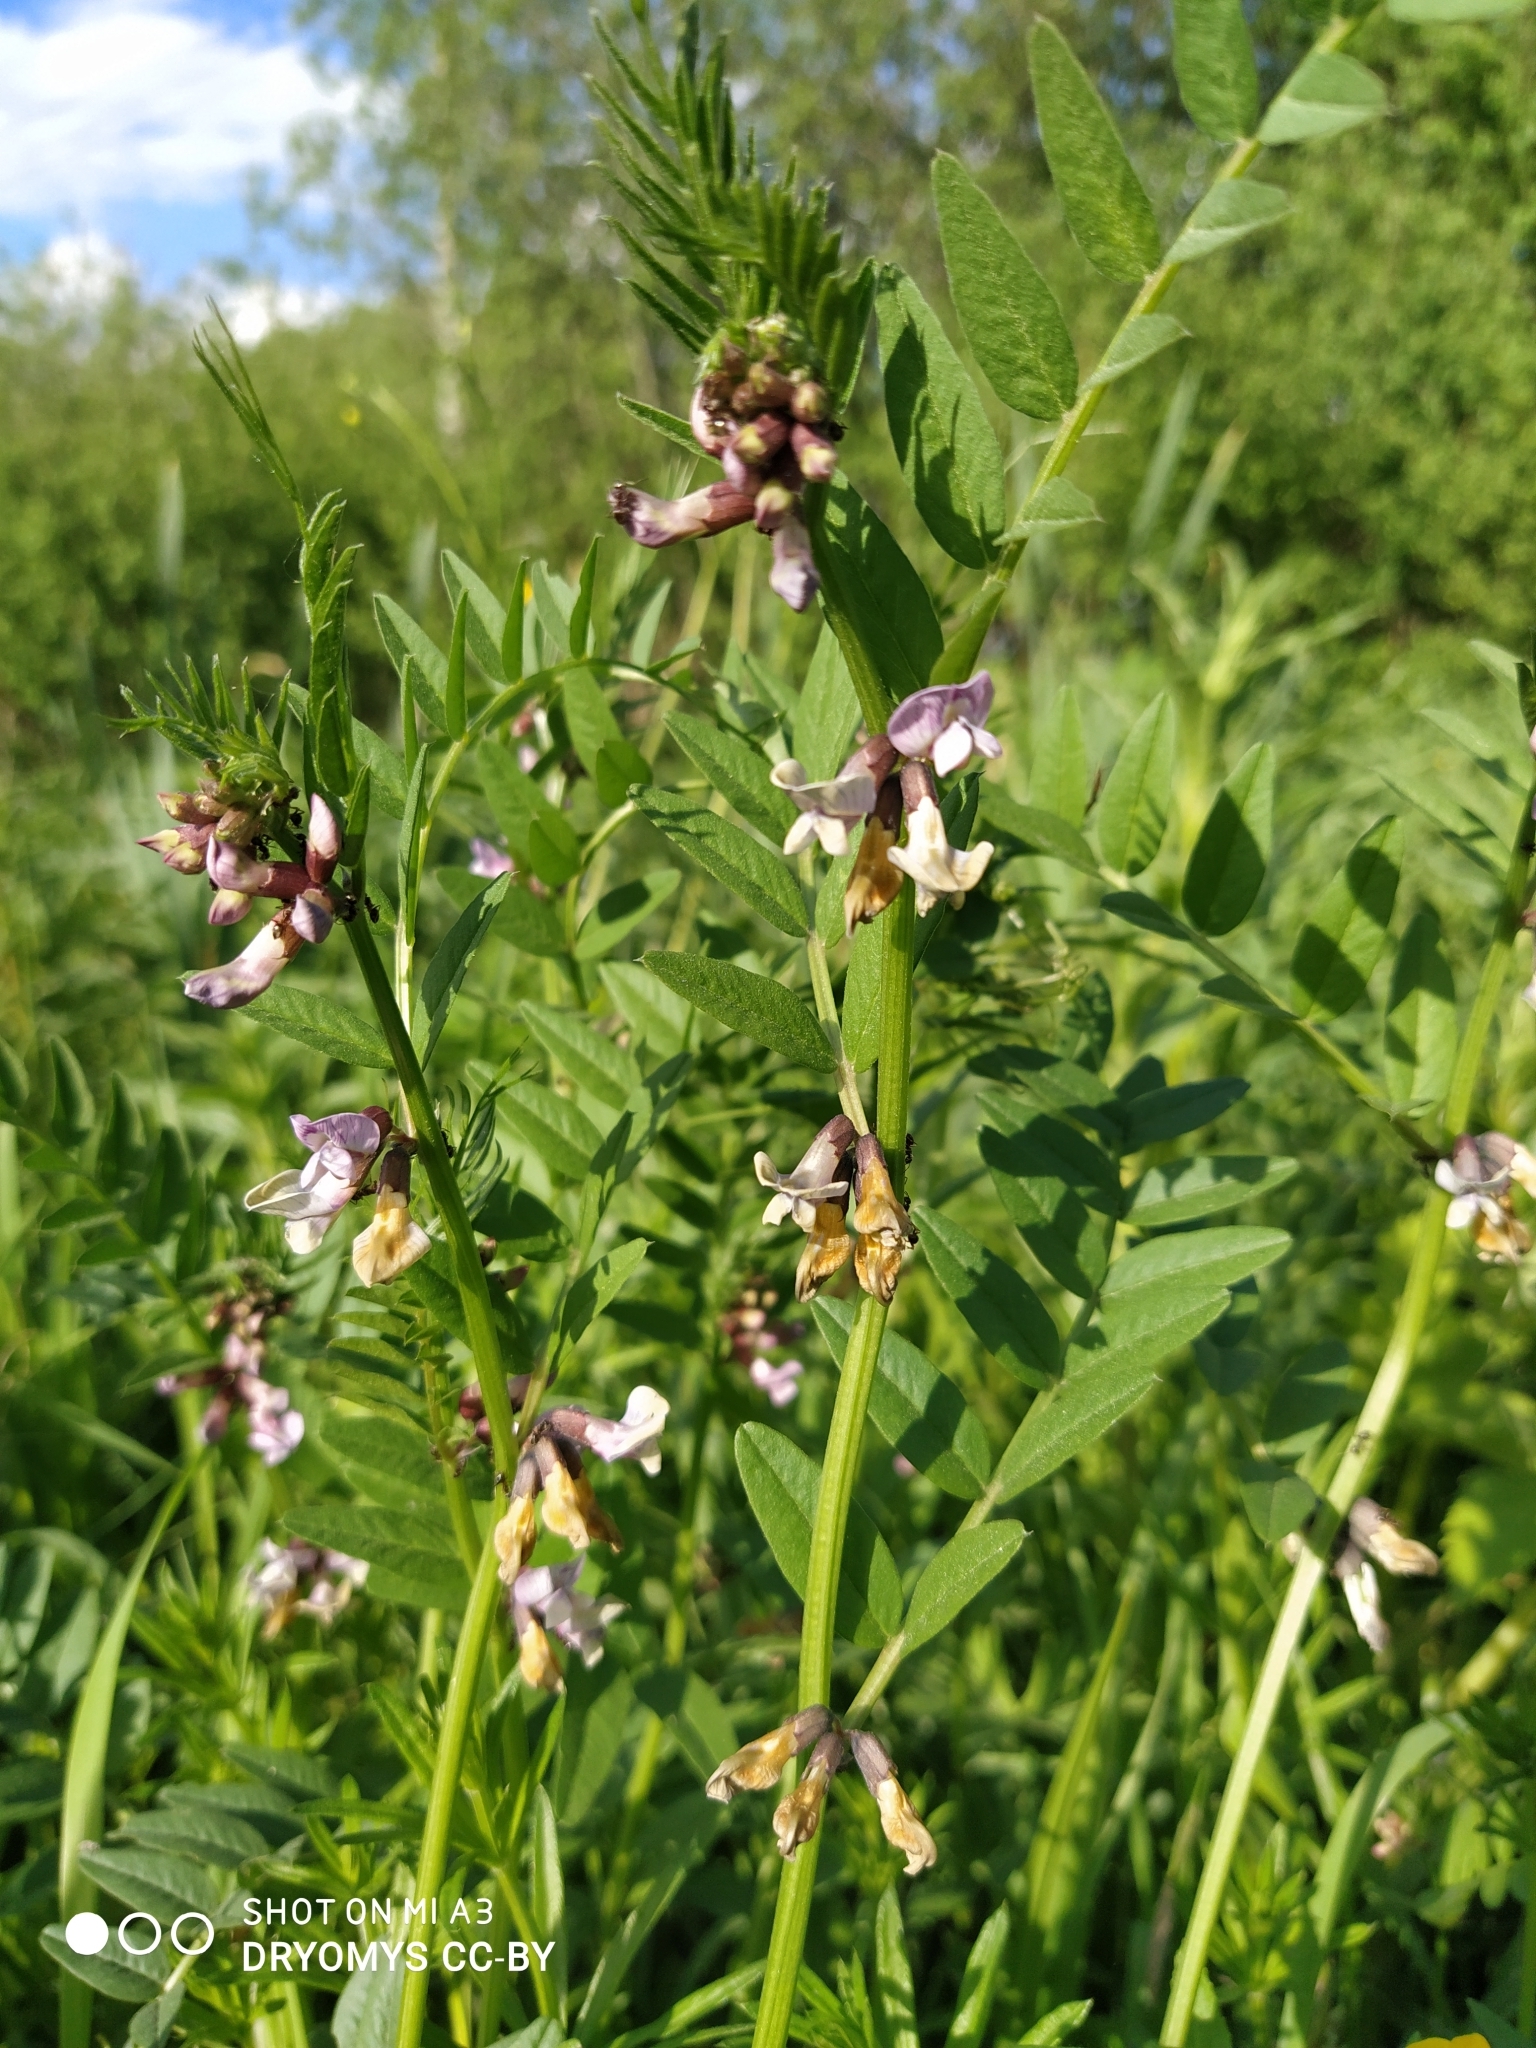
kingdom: Plantae
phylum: Tracheophyta
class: Magnoliopsida
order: Fabales
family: Fabaceae
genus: Vicia
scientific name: Vicia sepium
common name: Bush vetch
